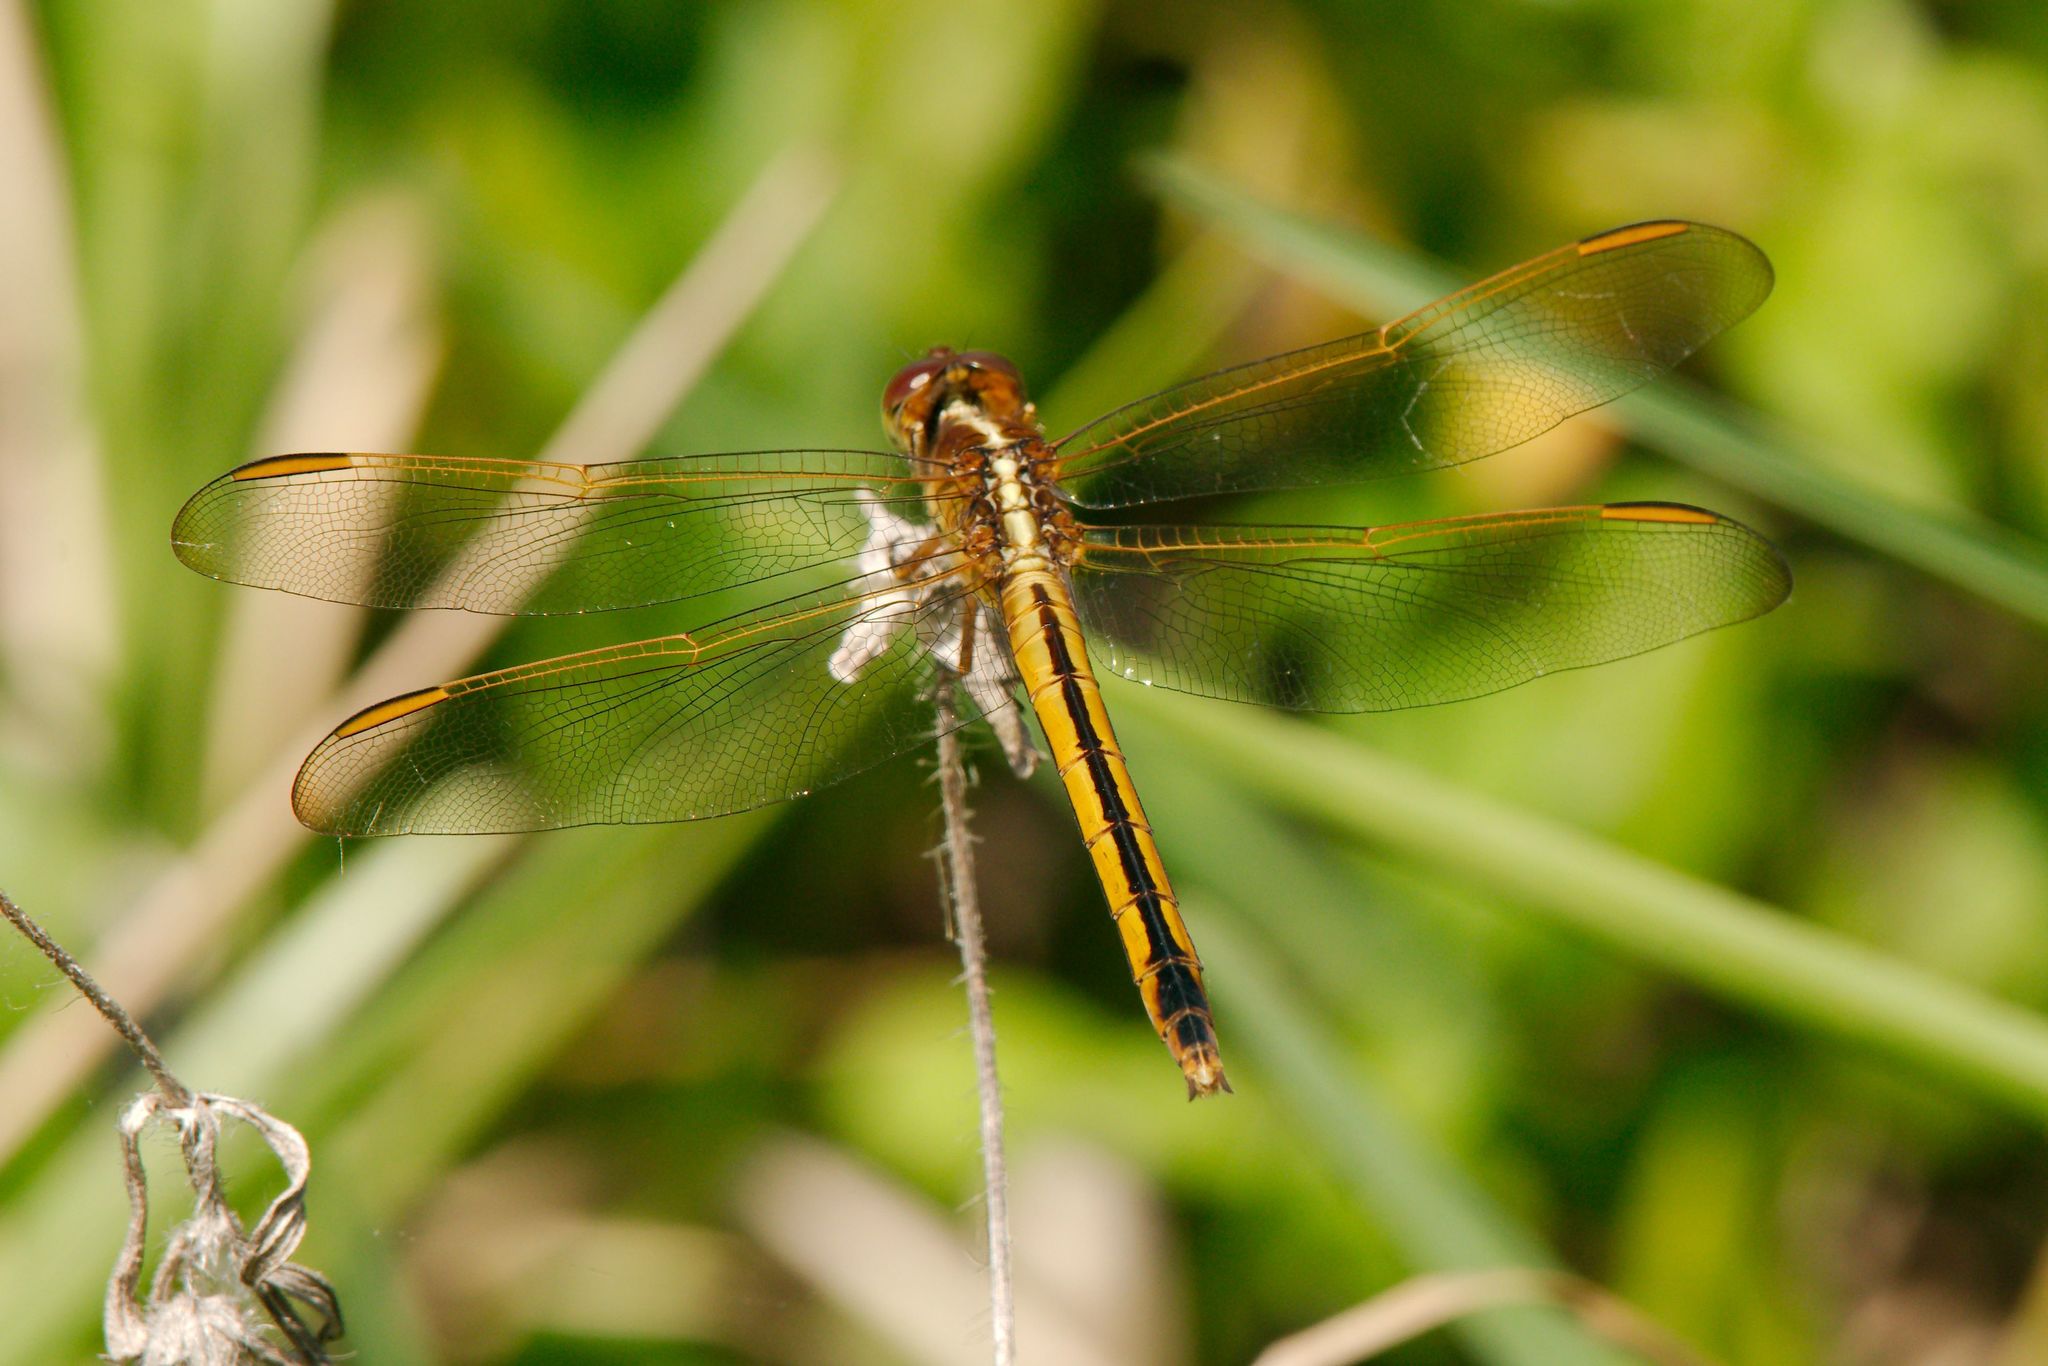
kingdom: Animalia
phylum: Arthropoda
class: Insecta
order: Odonata
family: Libellulidae
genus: Libellula
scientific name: Libellula needhami
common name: Needham's skimmer
